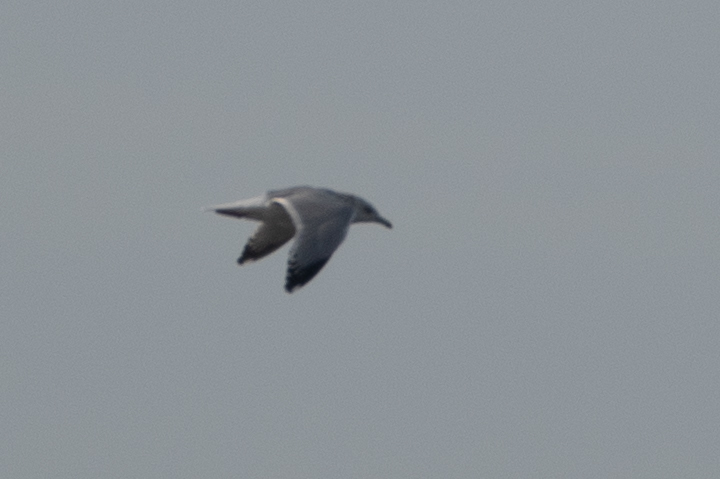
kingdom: Animalia
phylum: Chordata
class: Aves
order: Charadriiformes
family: Laridae
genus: Larus
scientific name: Larus argentatus
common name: Herring gull
